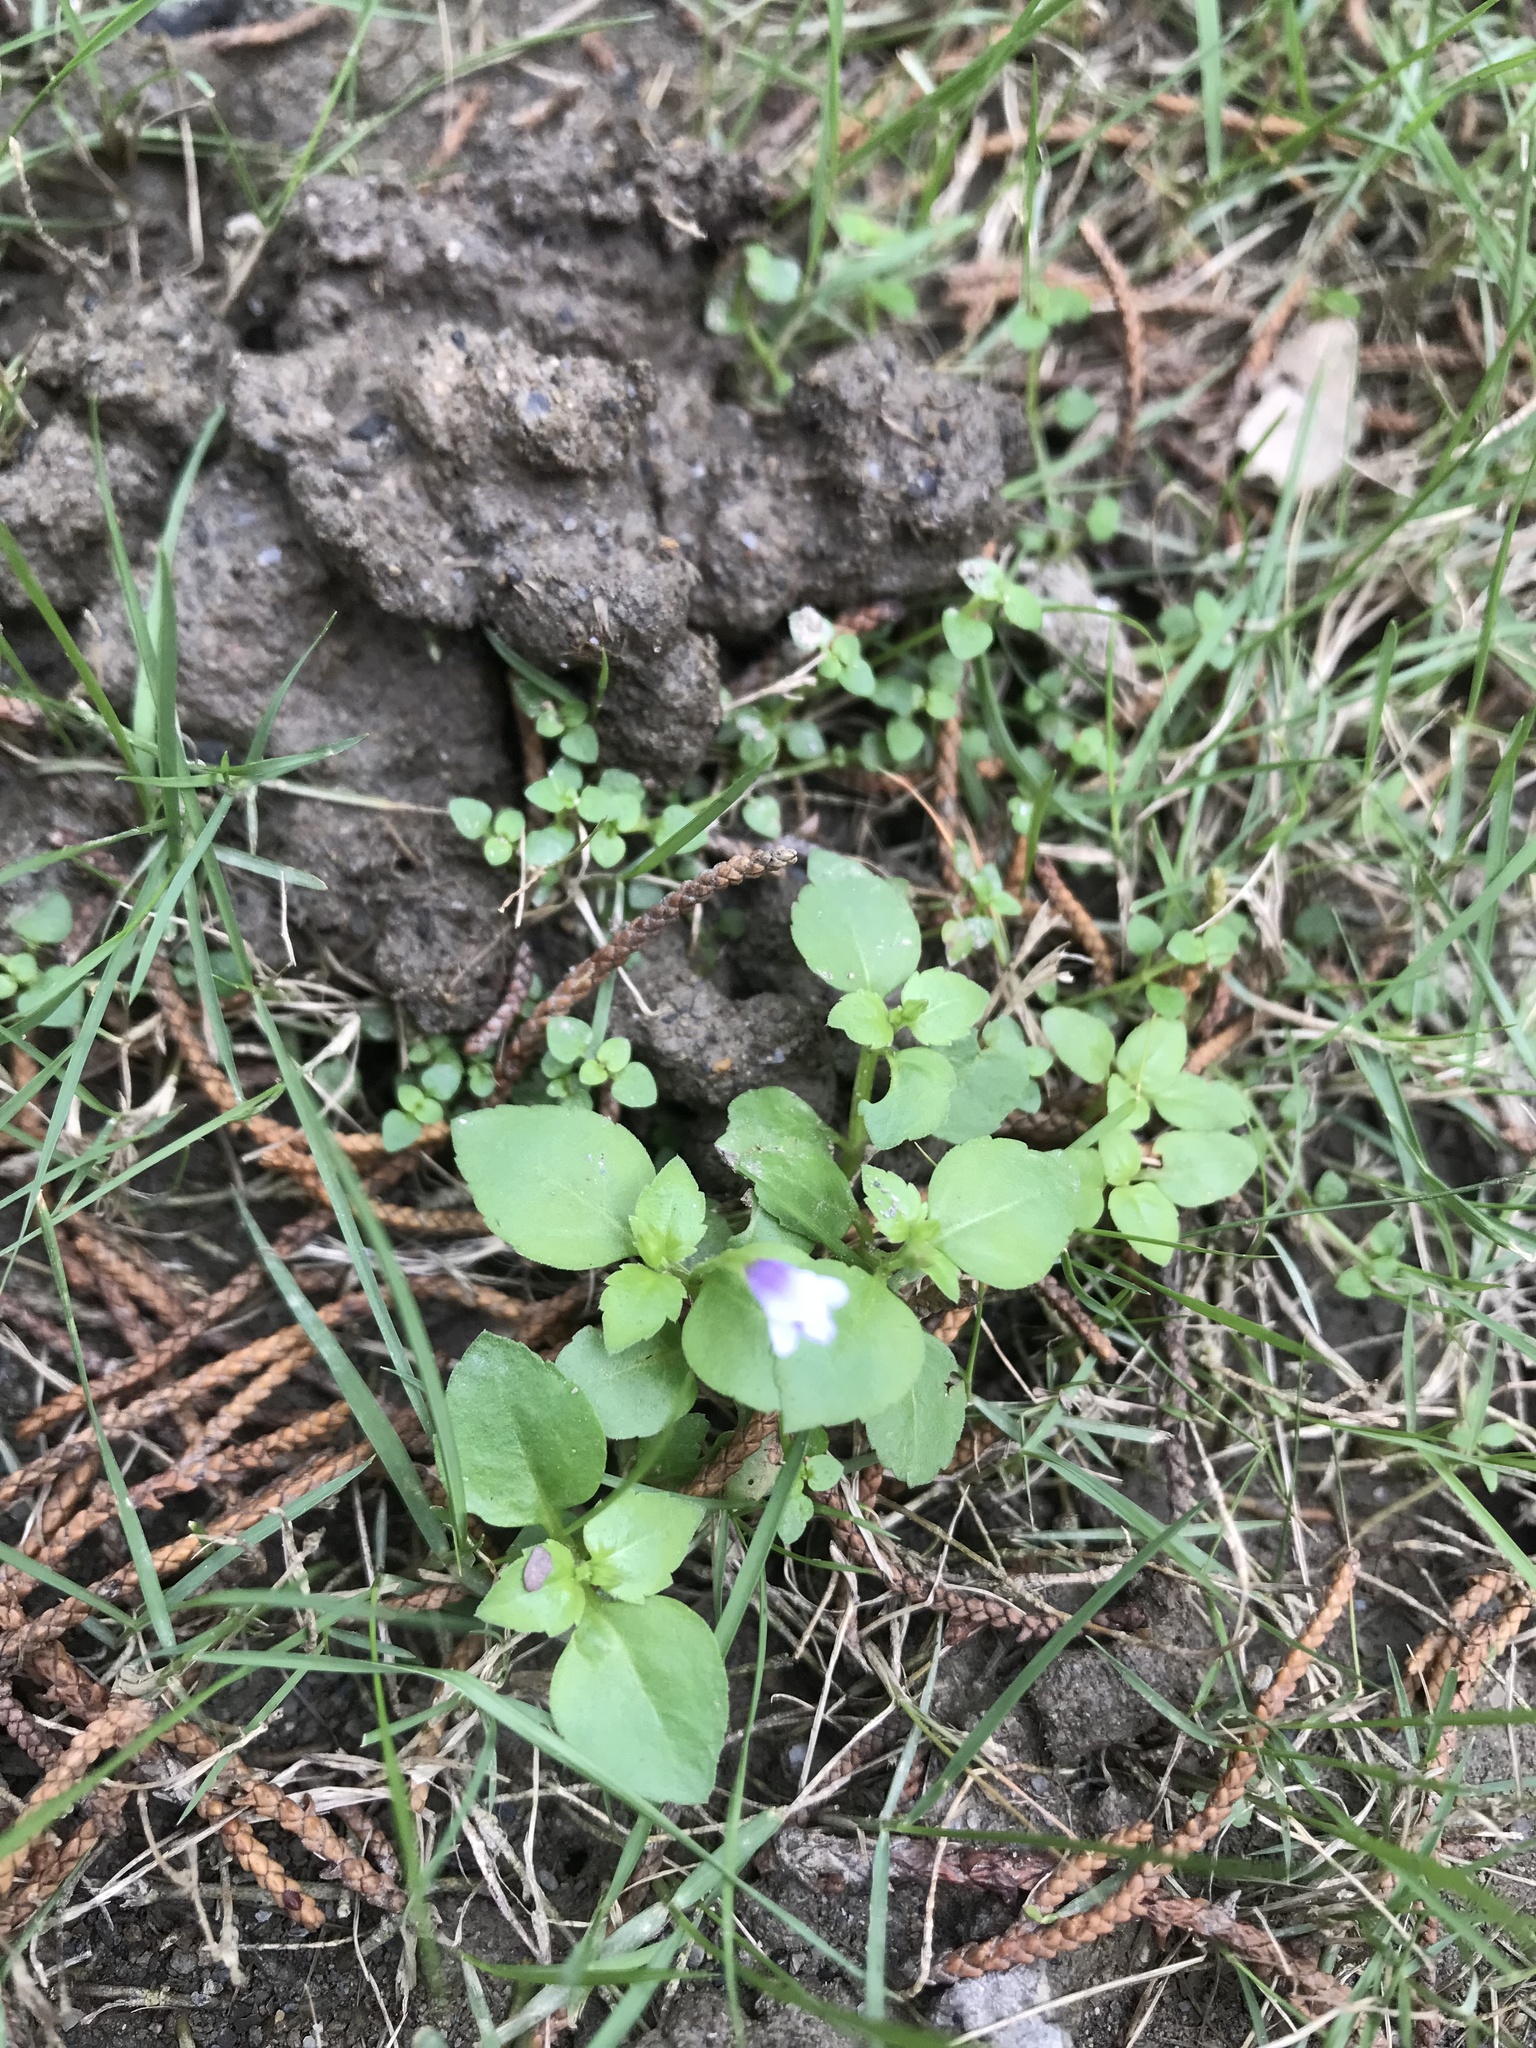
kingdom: Plantae
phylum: Tracheophyta
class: Magnoliopsida
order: Lamiales
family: Linderniaceae
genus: Torenia
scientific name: Torenia crustacea
